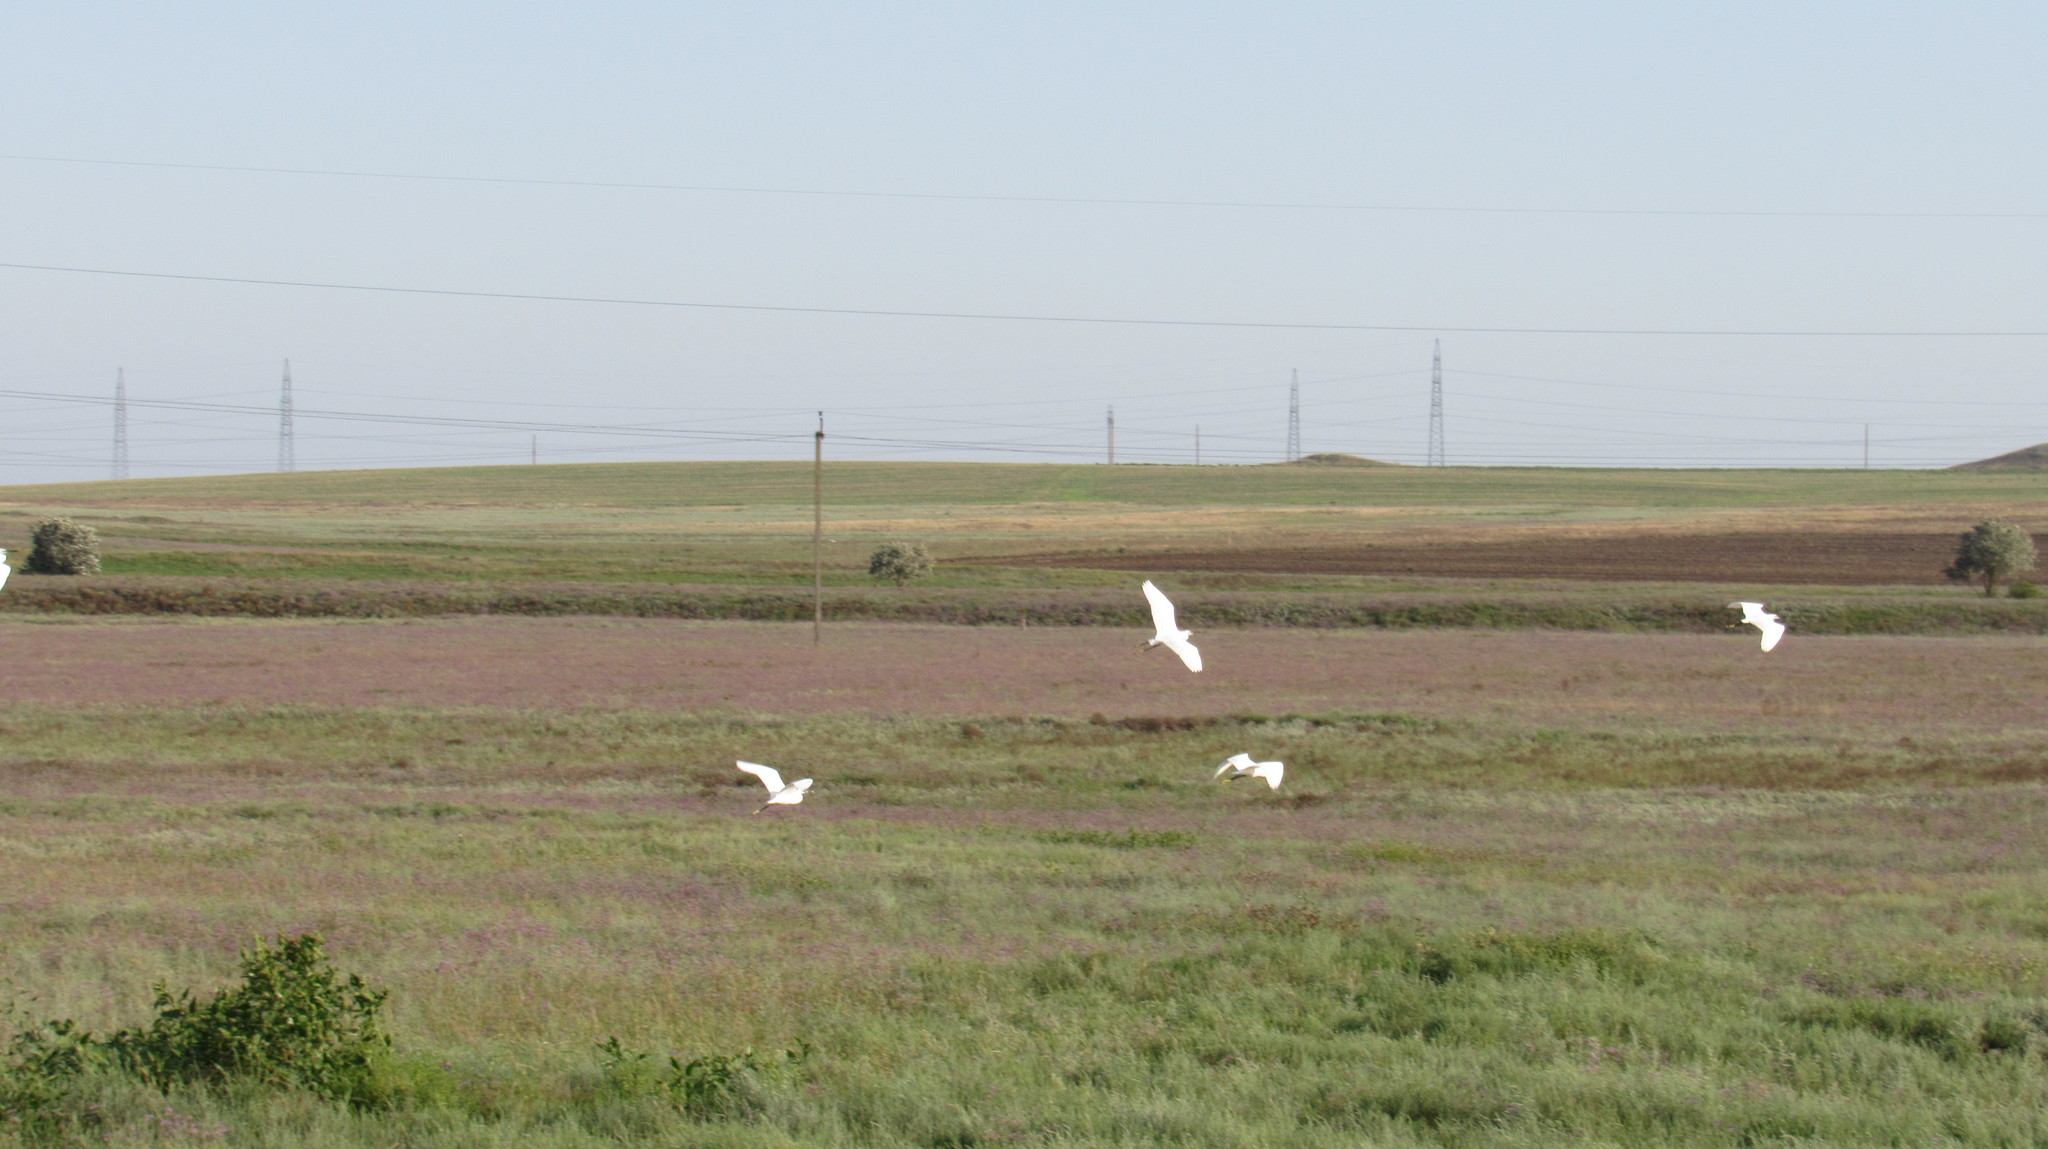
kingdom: Animalia
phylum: Chordata
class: Aves
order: Pelecaniformes
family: Ardeidae
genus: Egretta
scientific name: Egretta garzetta
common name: Little egret
